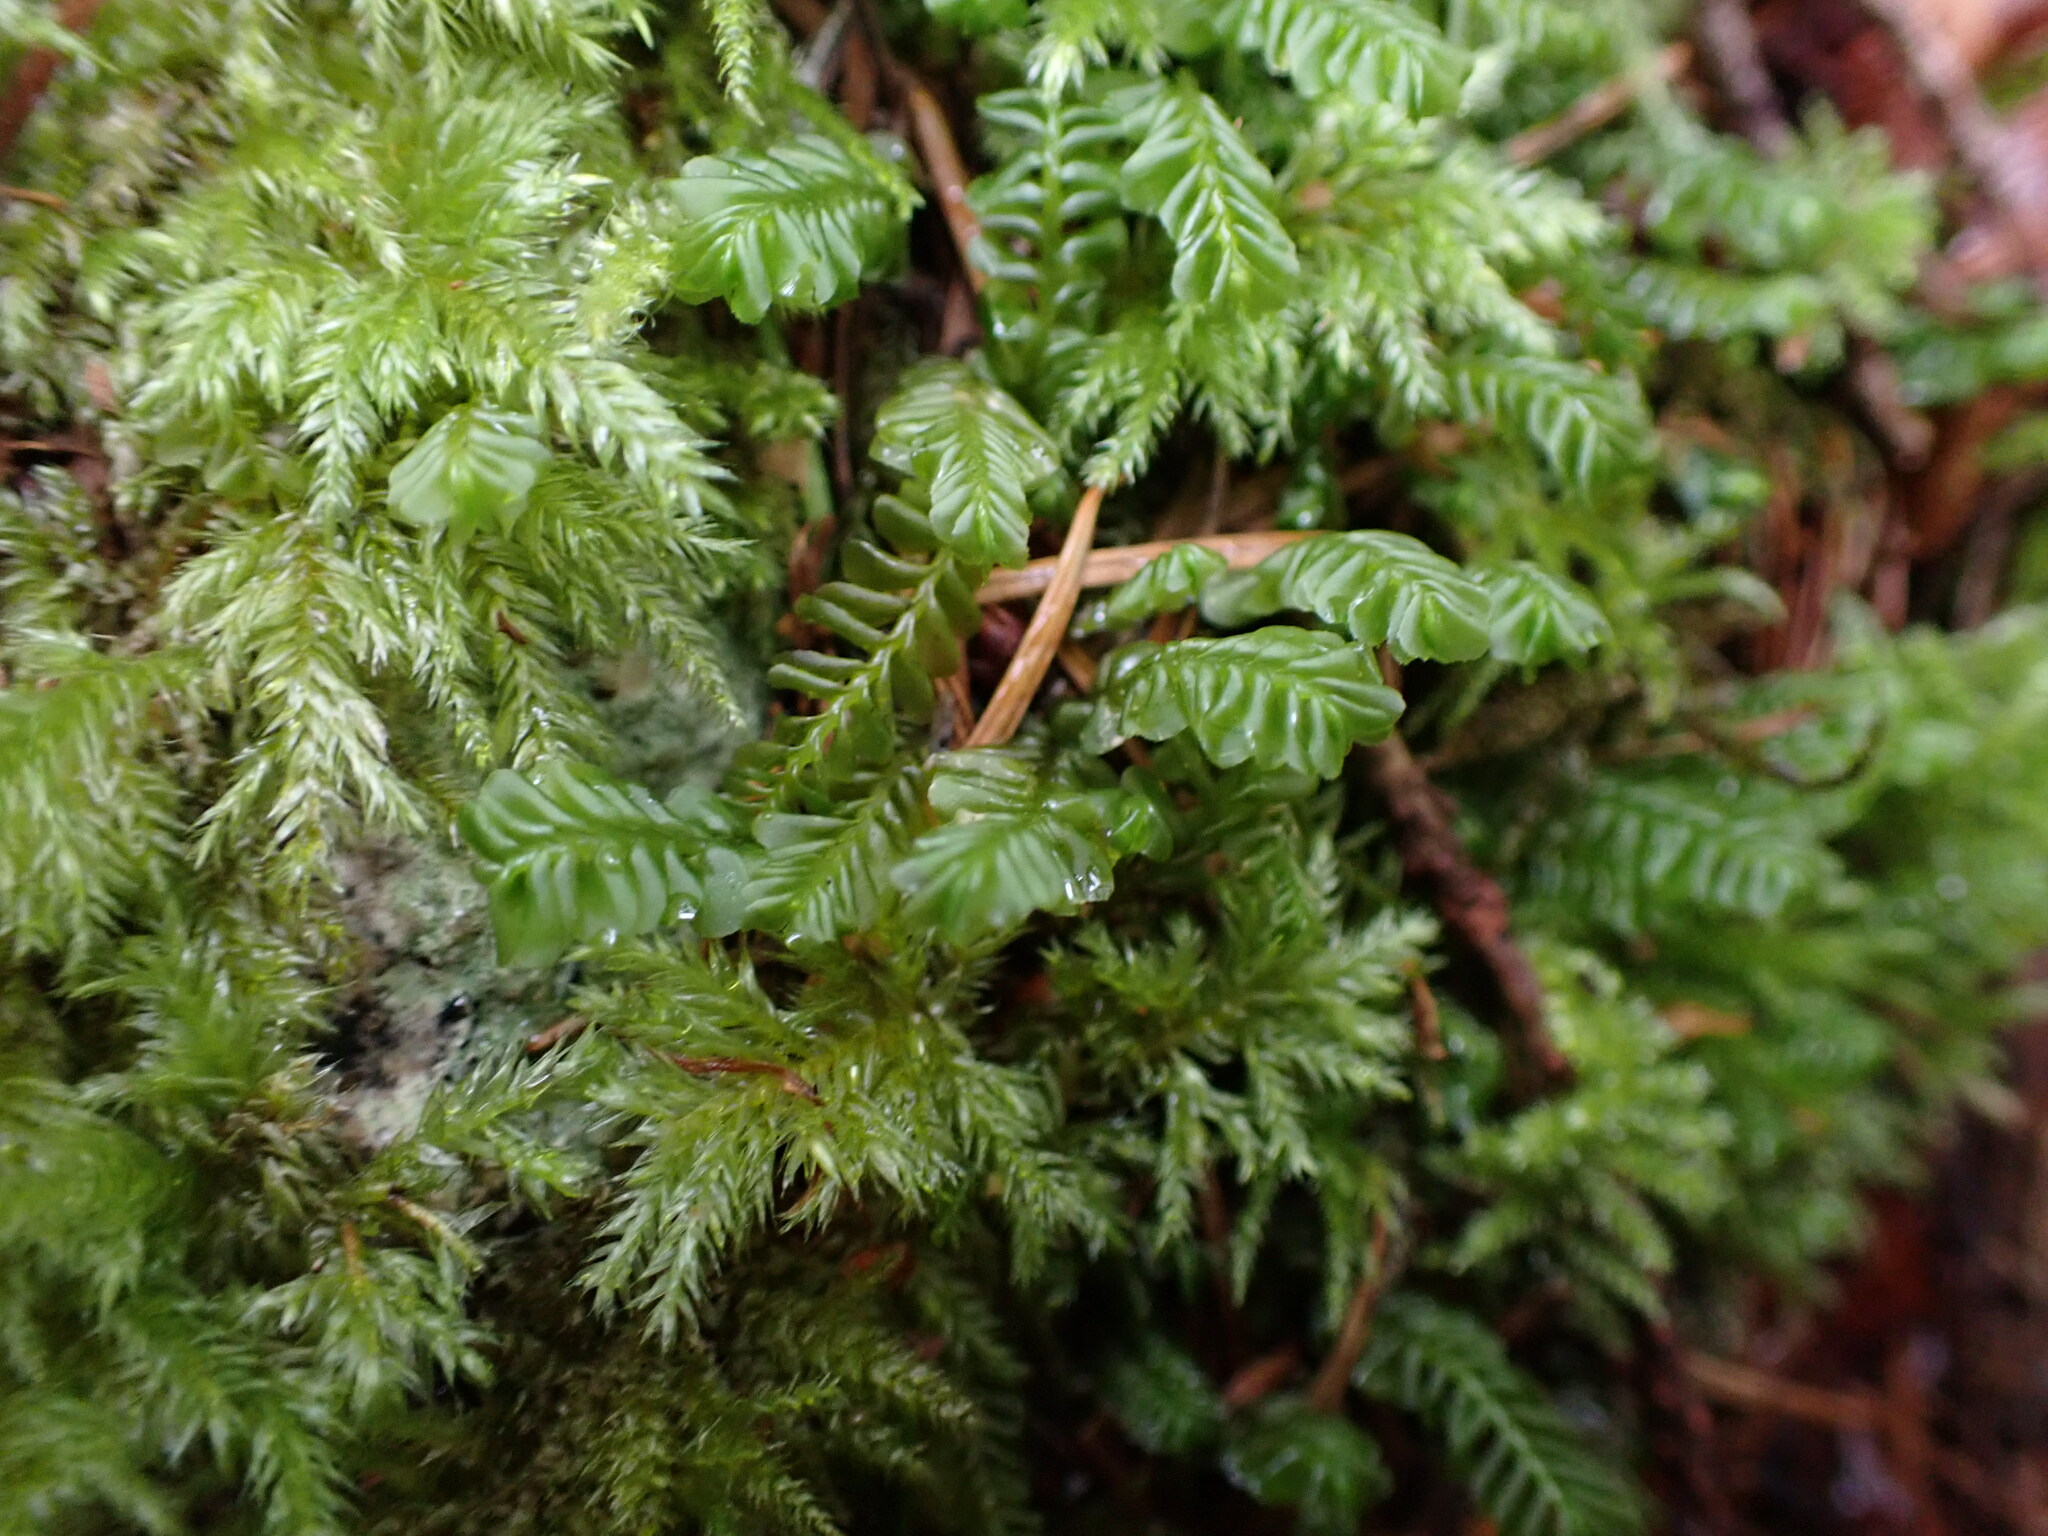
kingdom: Plantae
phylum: Marchantiophyta
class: Jungermanniopsida
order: Jungermanniales
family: Plagiochilaceae
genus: Plagiochila
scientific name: Plagiochila porelloides
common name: Lesser featherwort
